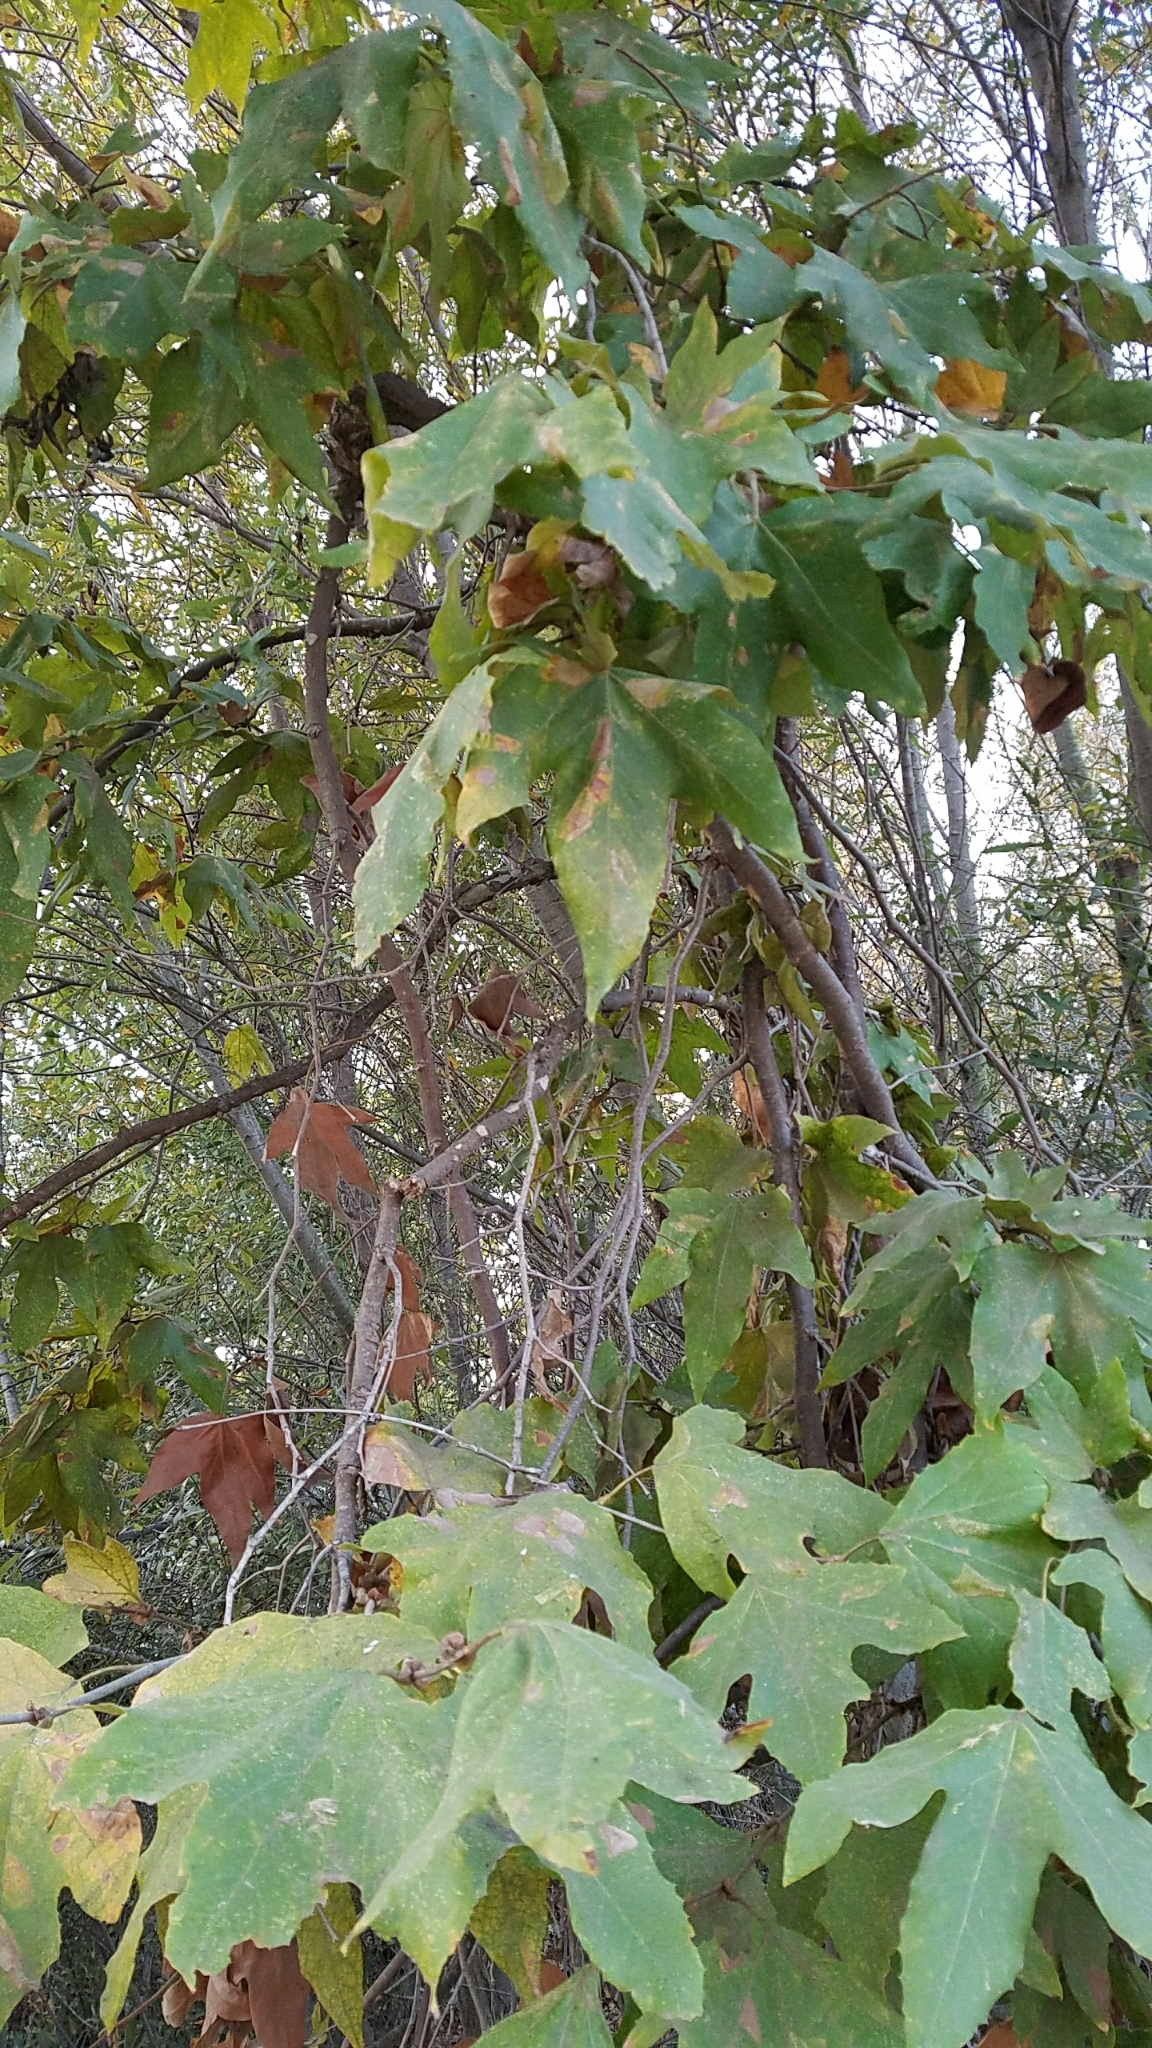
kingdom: Plantae
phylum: Tracheophyta
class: Magnoliopsida
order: Proteales
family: Platanaceae
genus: Platanus
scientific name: Platanus racemosa
